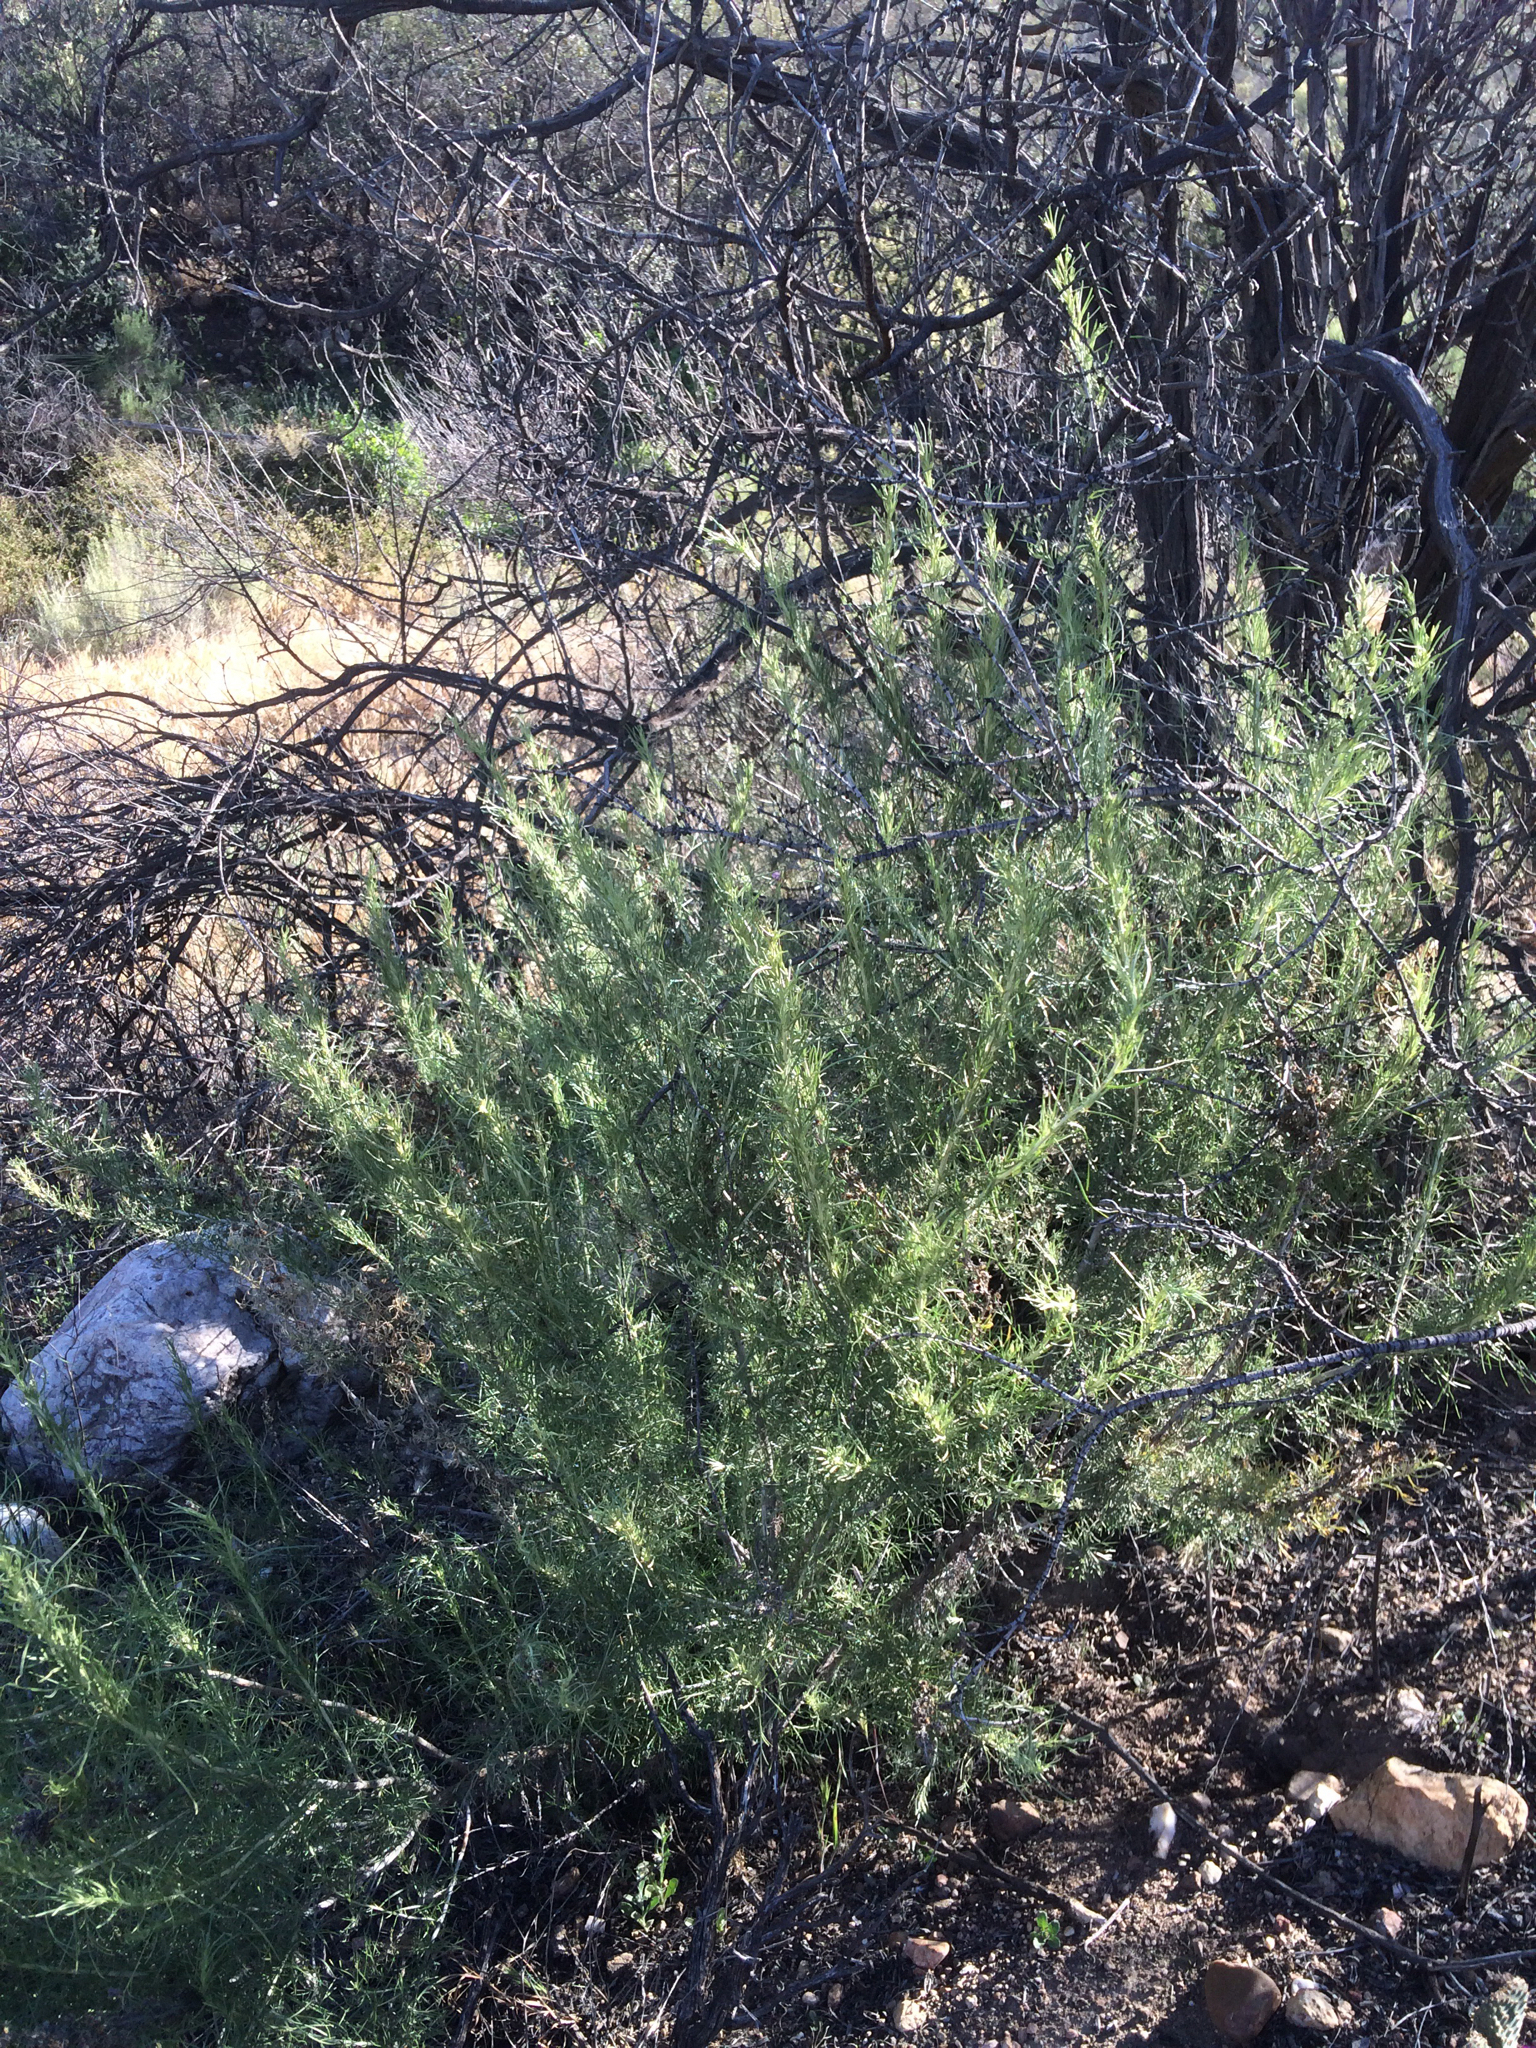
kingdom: Plantae
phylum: Tracheophyta
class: Magnoliopsida
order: Asterales
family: Asteraceae
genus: Artemisia
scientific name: Artemisia californica
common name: California sagebrush
